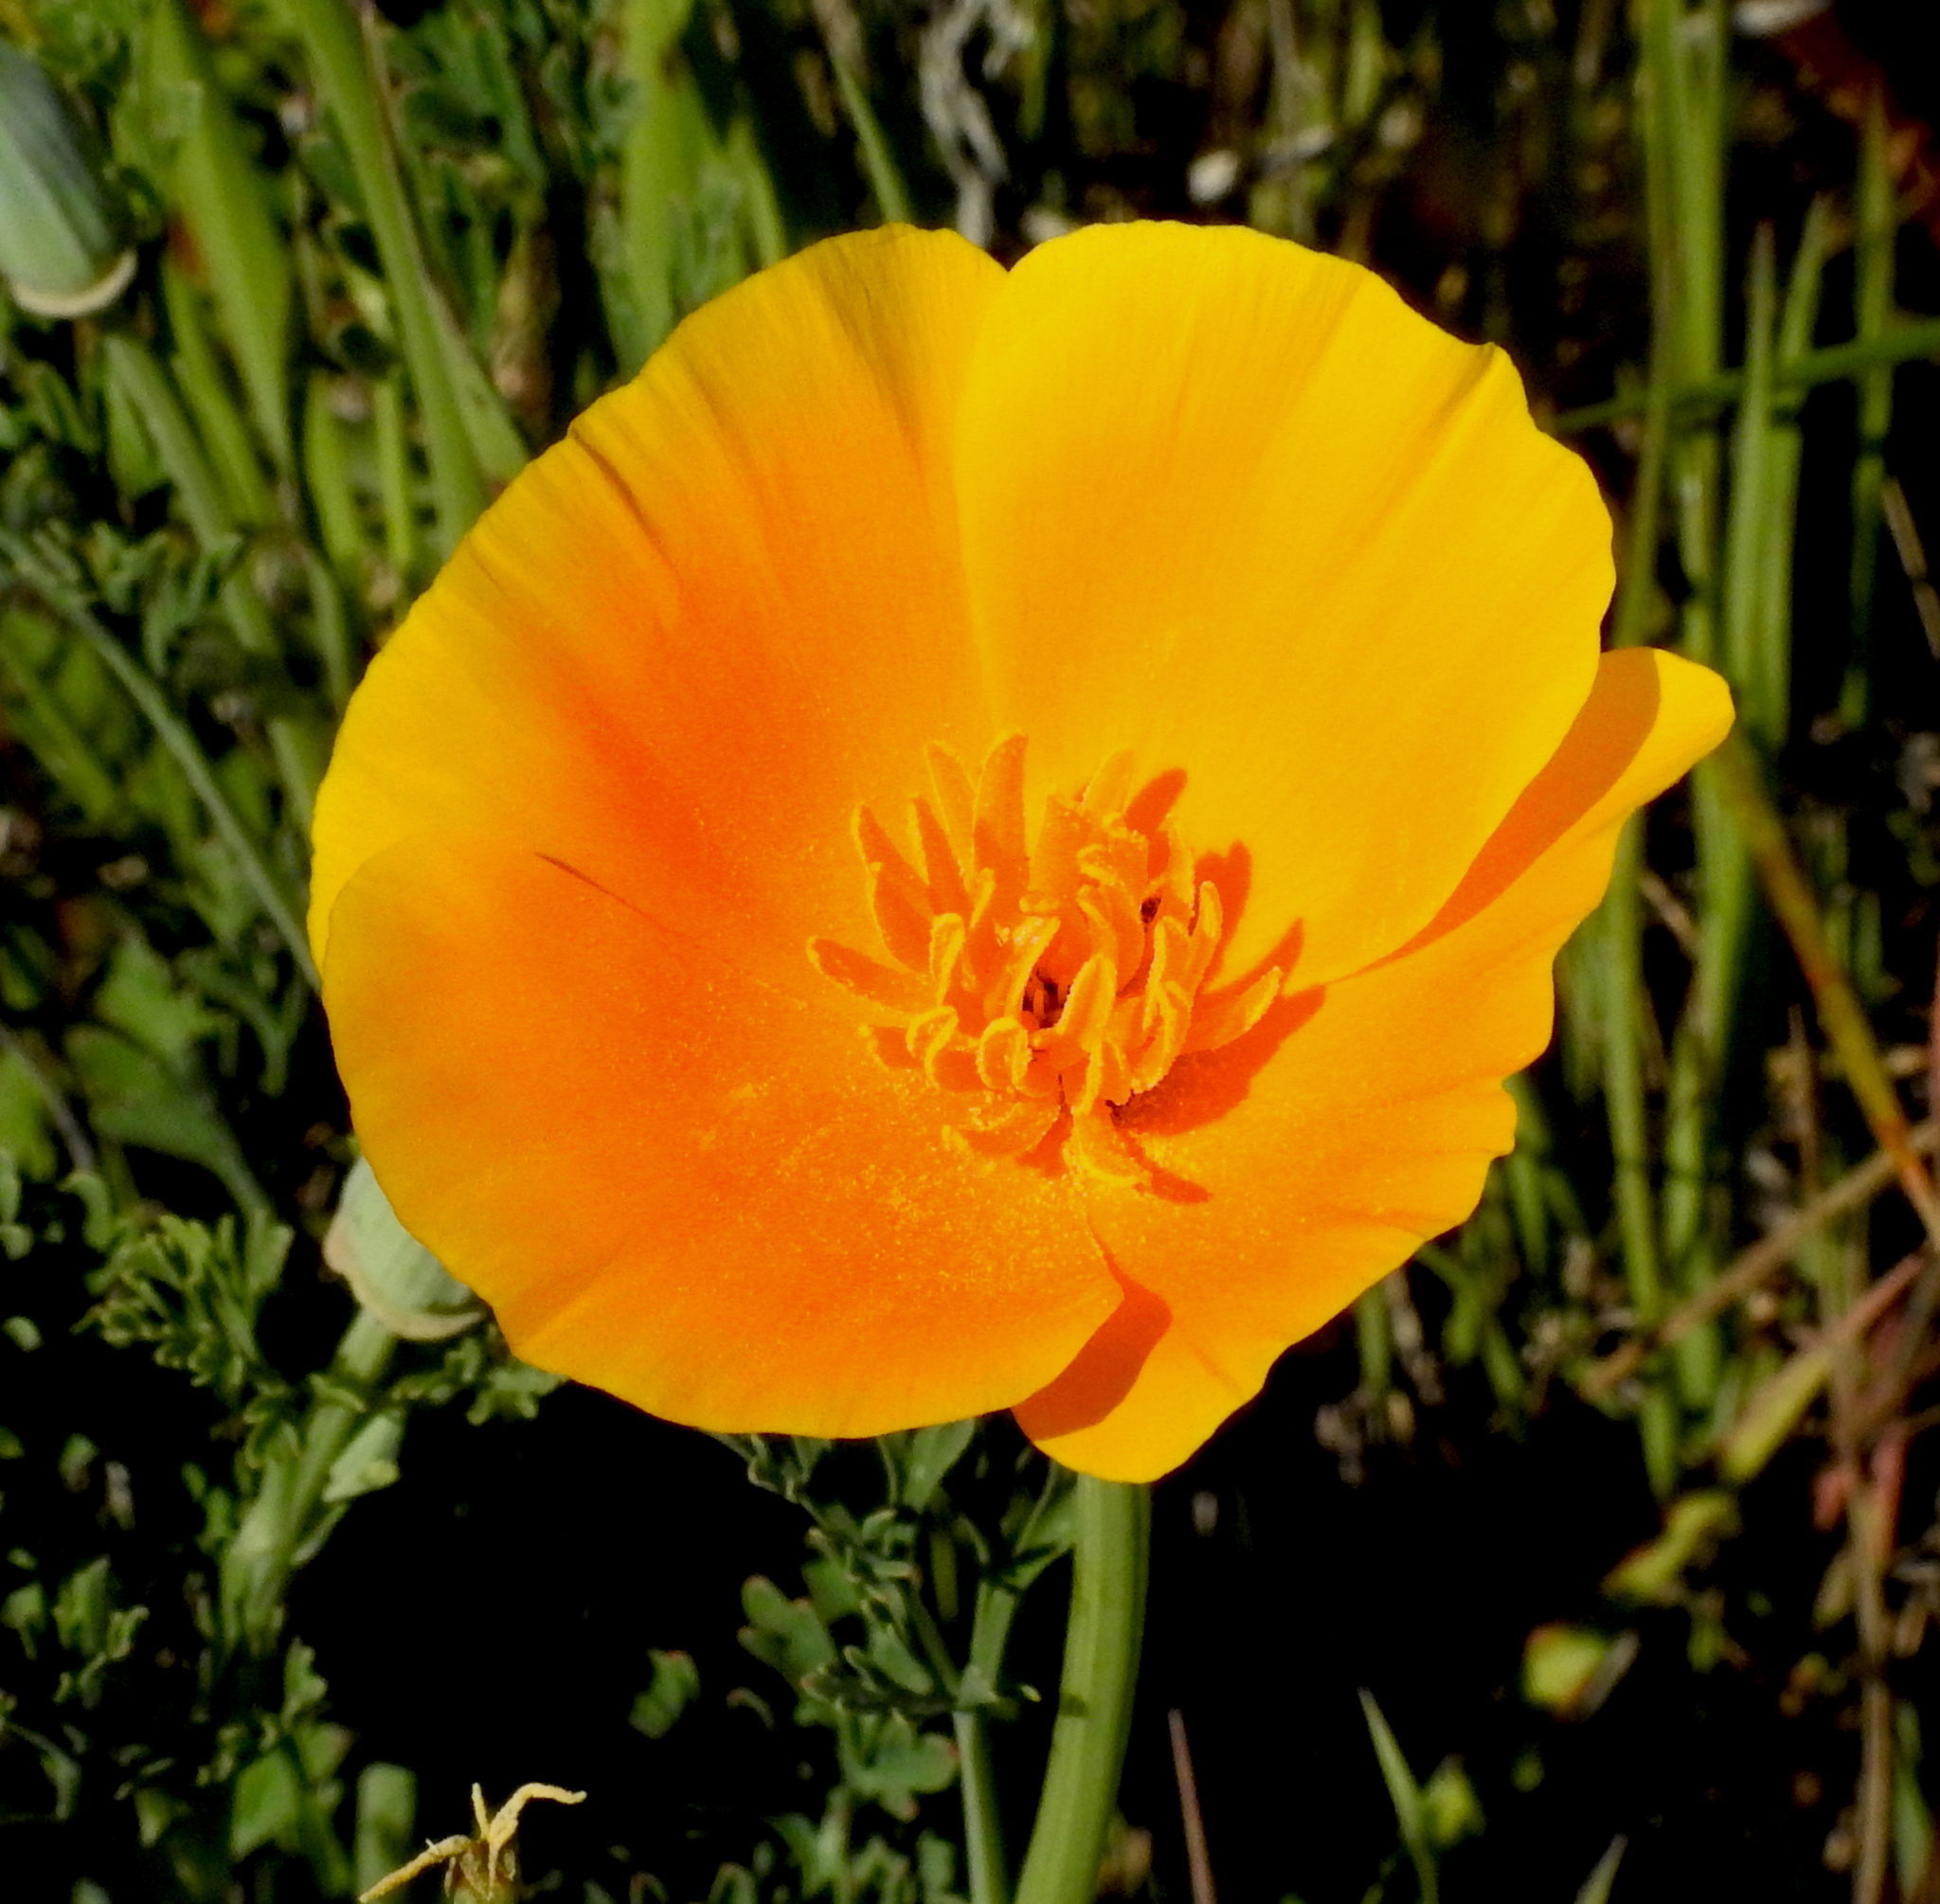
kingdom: Plantae
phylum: Tracheophyta
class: Magnoliopsida
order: Ranunculales
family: Papaveraceae
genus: Eschscholzia
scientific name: Eschscholzia californica
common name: California poppy
